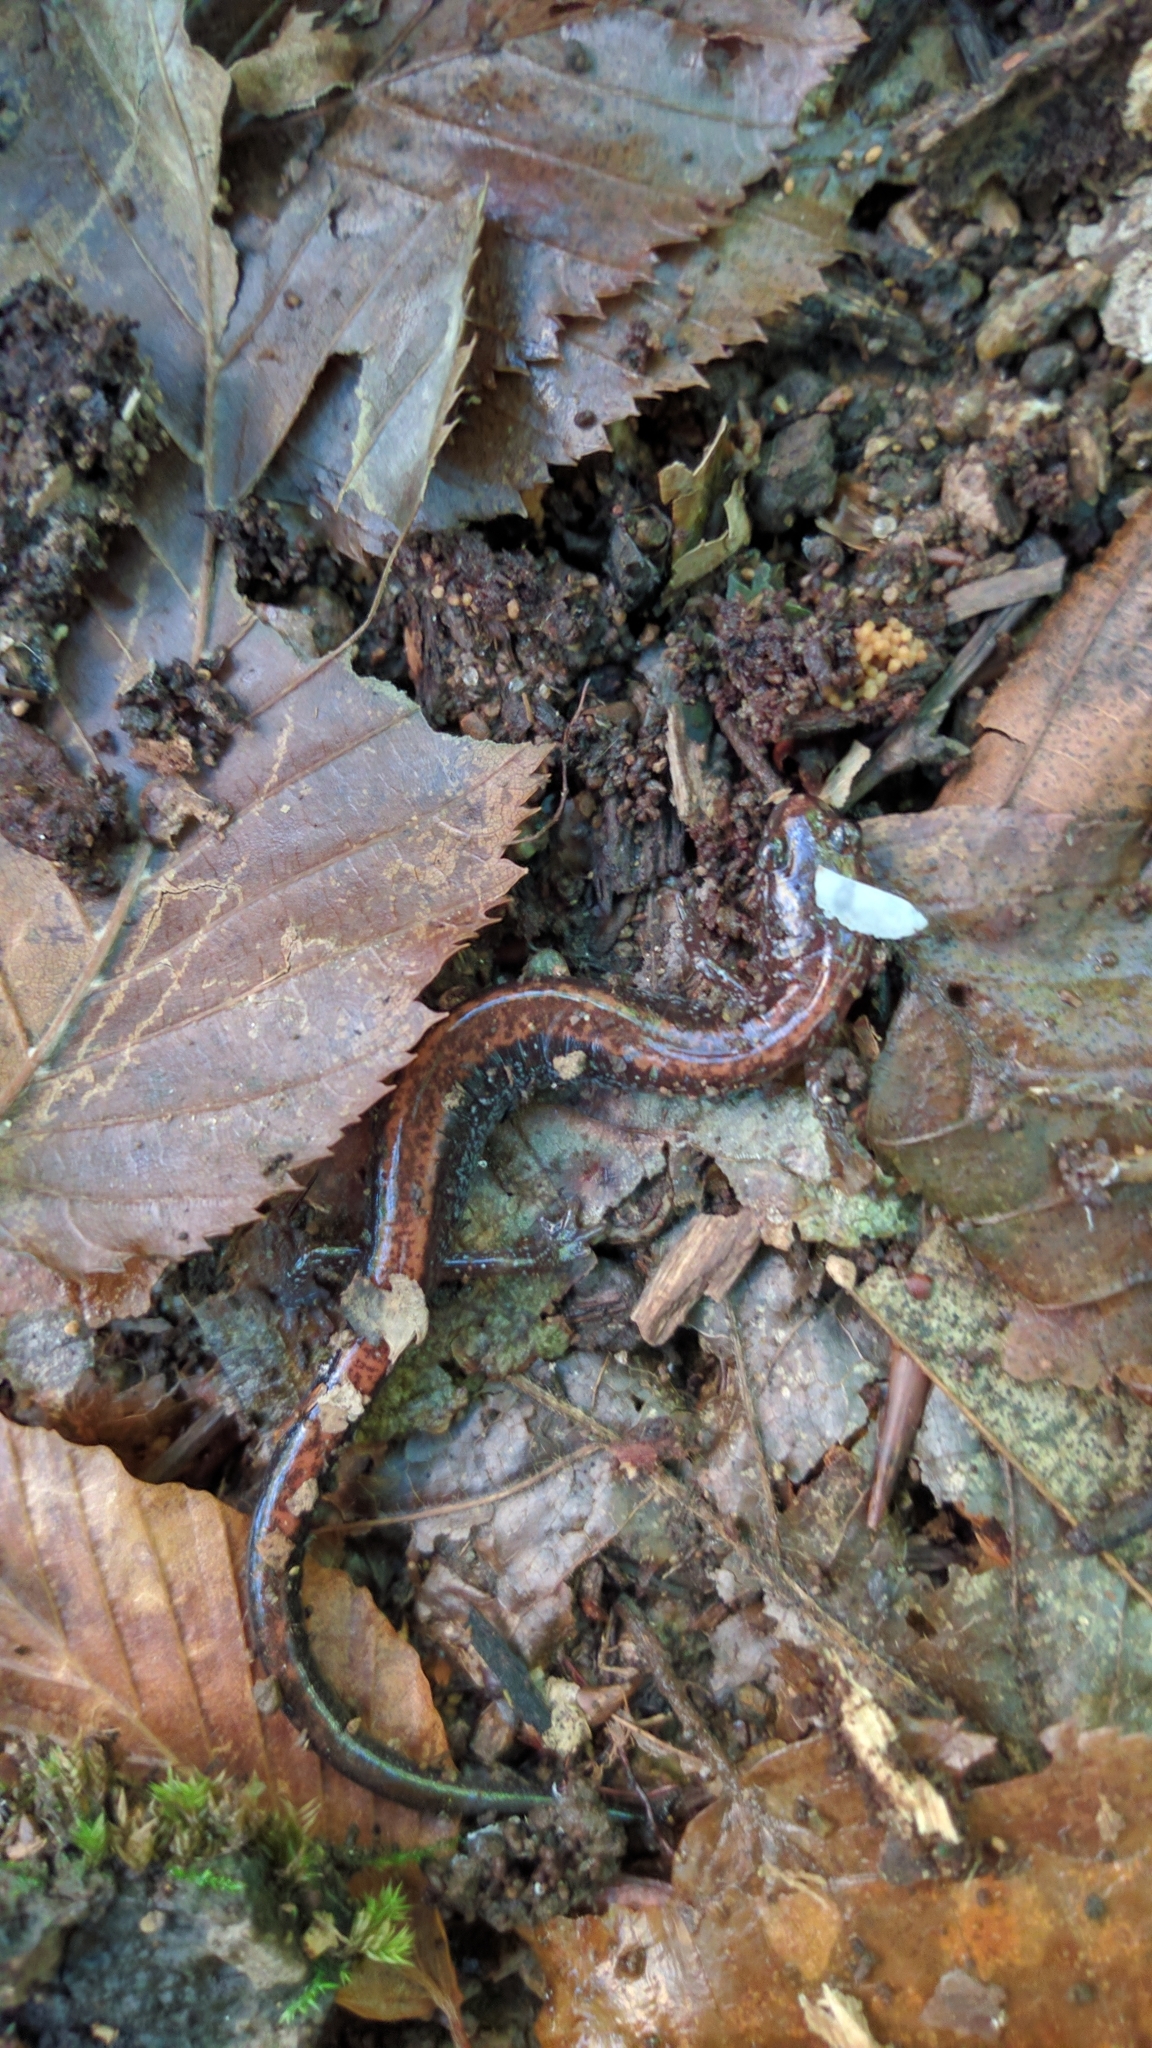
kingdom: Animalia
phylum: Chordata
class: Amphibia
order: Caudata
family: Plethodontidae
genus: Plethodon
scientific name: Plethodon cinereus
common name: Redback salamander
